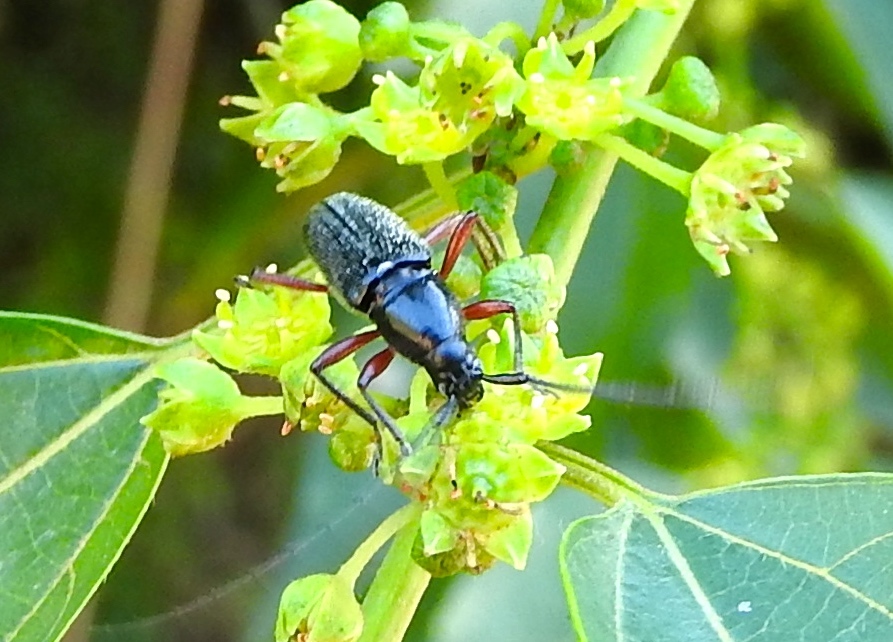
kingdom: Animalia
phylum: Arthropoda
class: Insecta
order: Coleoptera
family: Cerambycidae
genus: Stenosphenus
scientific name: Stenosphenus
